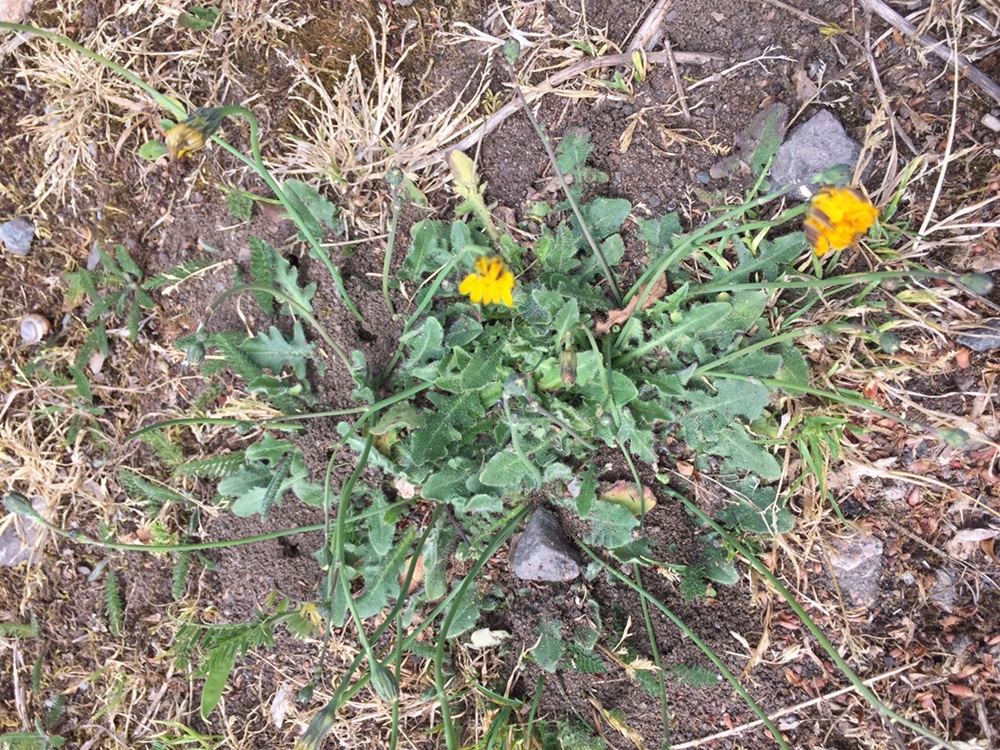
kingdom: Plantae
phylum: Tracheophyta
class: Magnoliopsida
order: Asterales
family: Asteraceae
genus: Hypochaeris
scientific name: Hypochaeris radicata
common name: Flatweed
